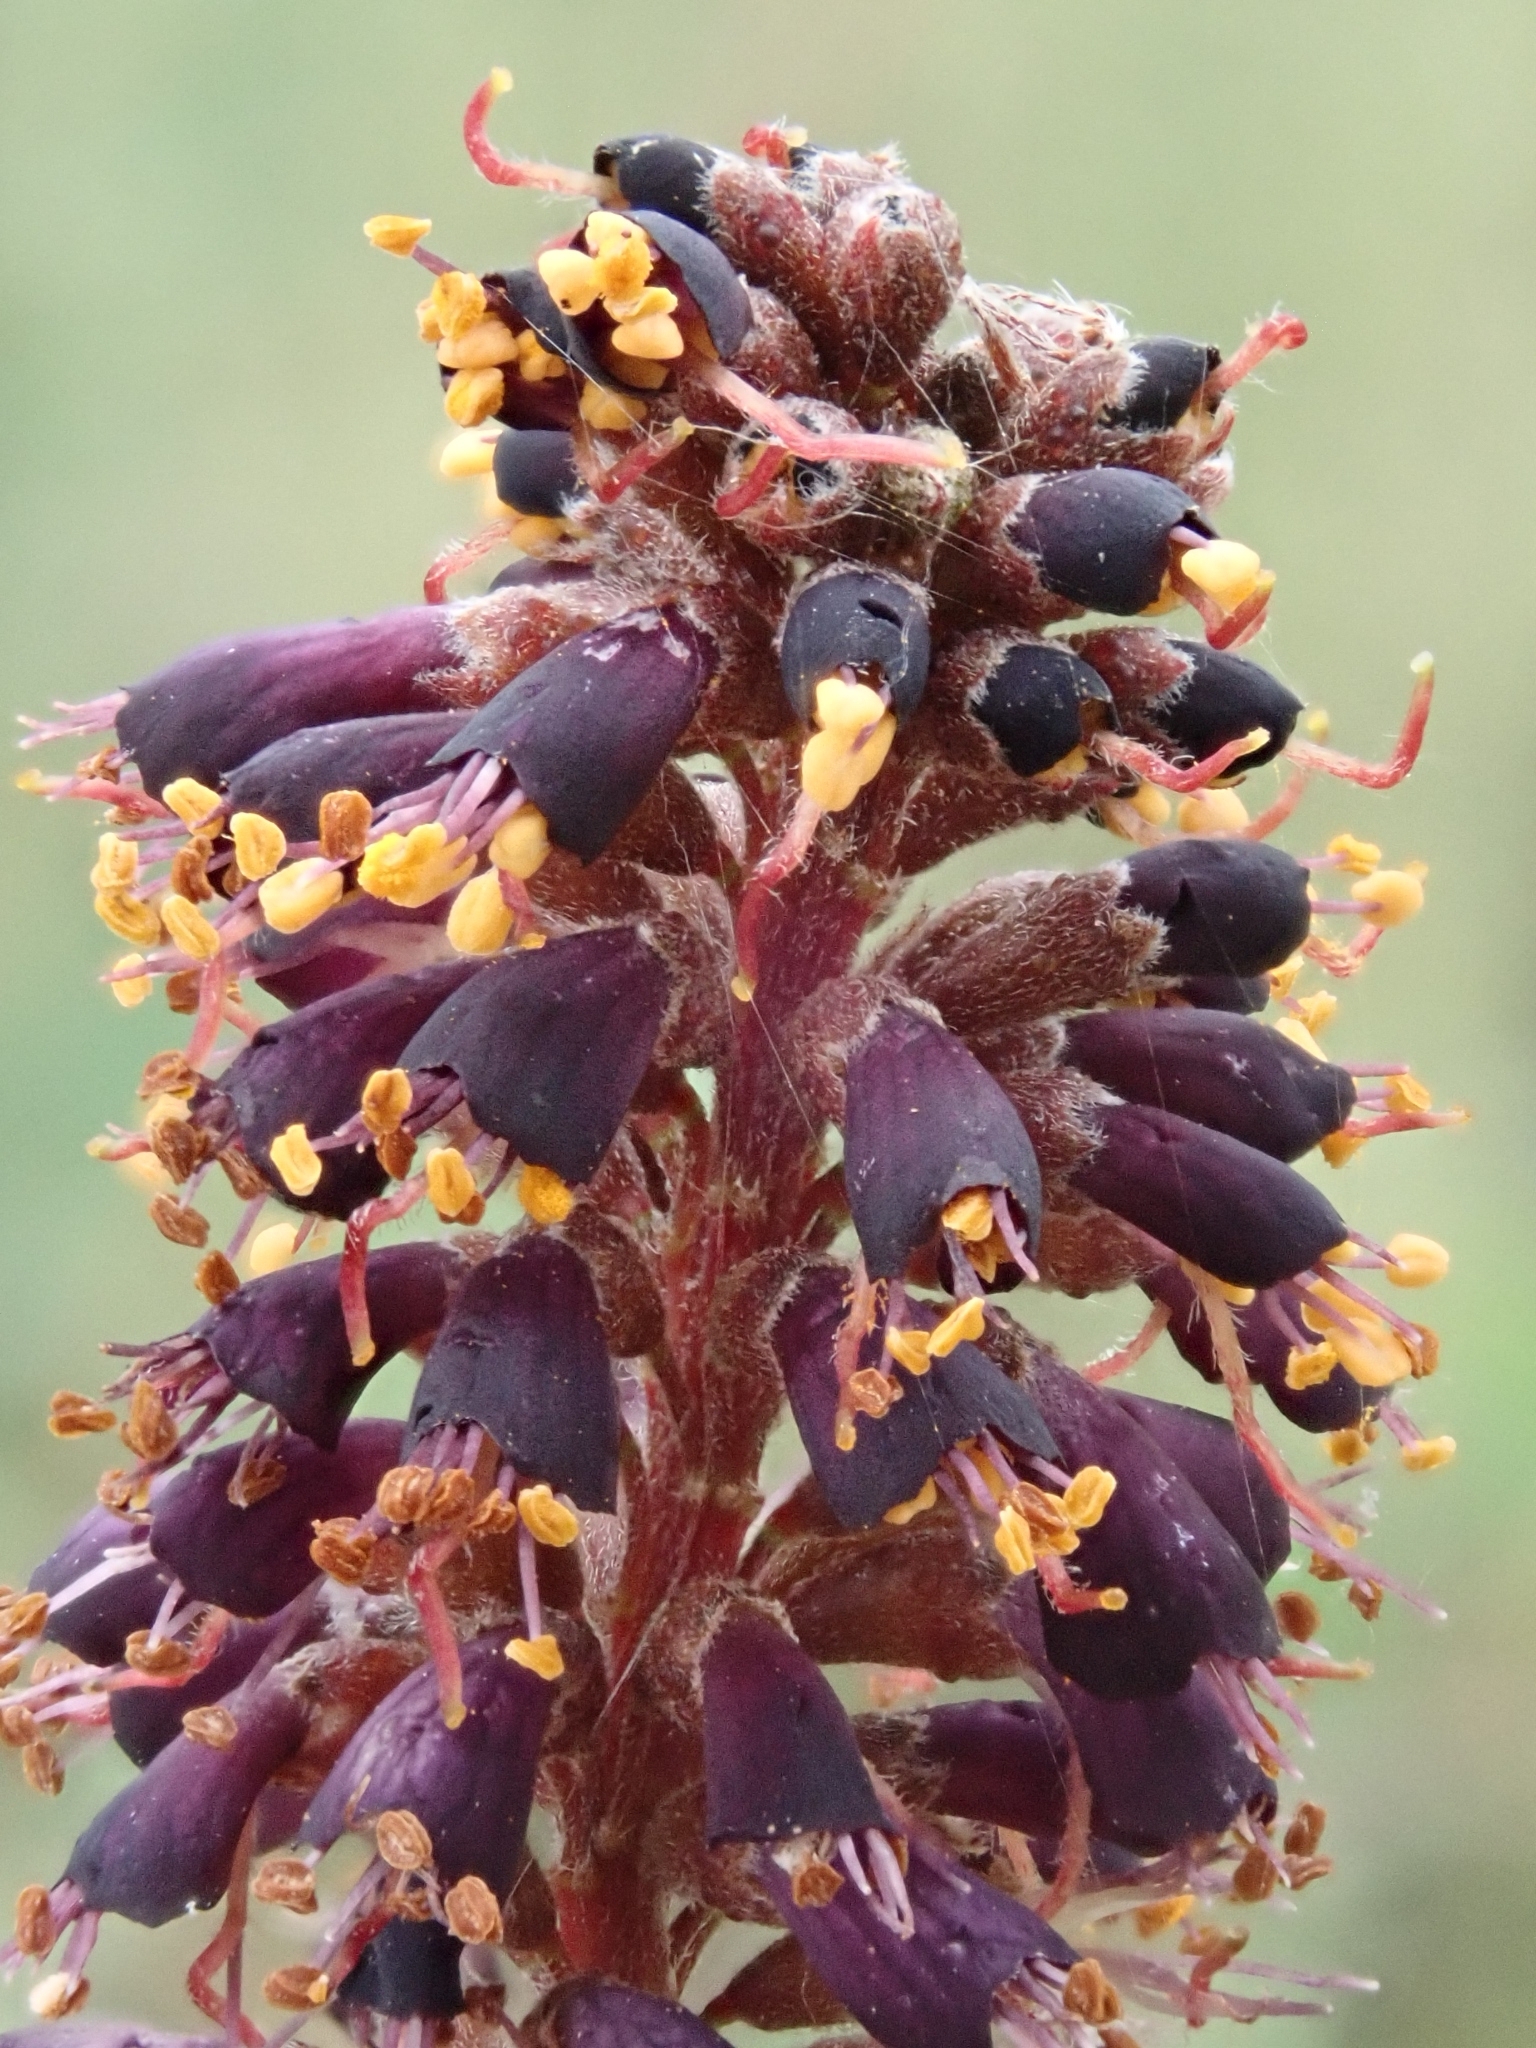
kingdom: Plantae
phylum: Tracheophyta
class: Magnoliopsida
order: Fabales
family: Fabaceae
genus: Amorpha
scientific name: Amorpha fruticosa
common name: False indigo
